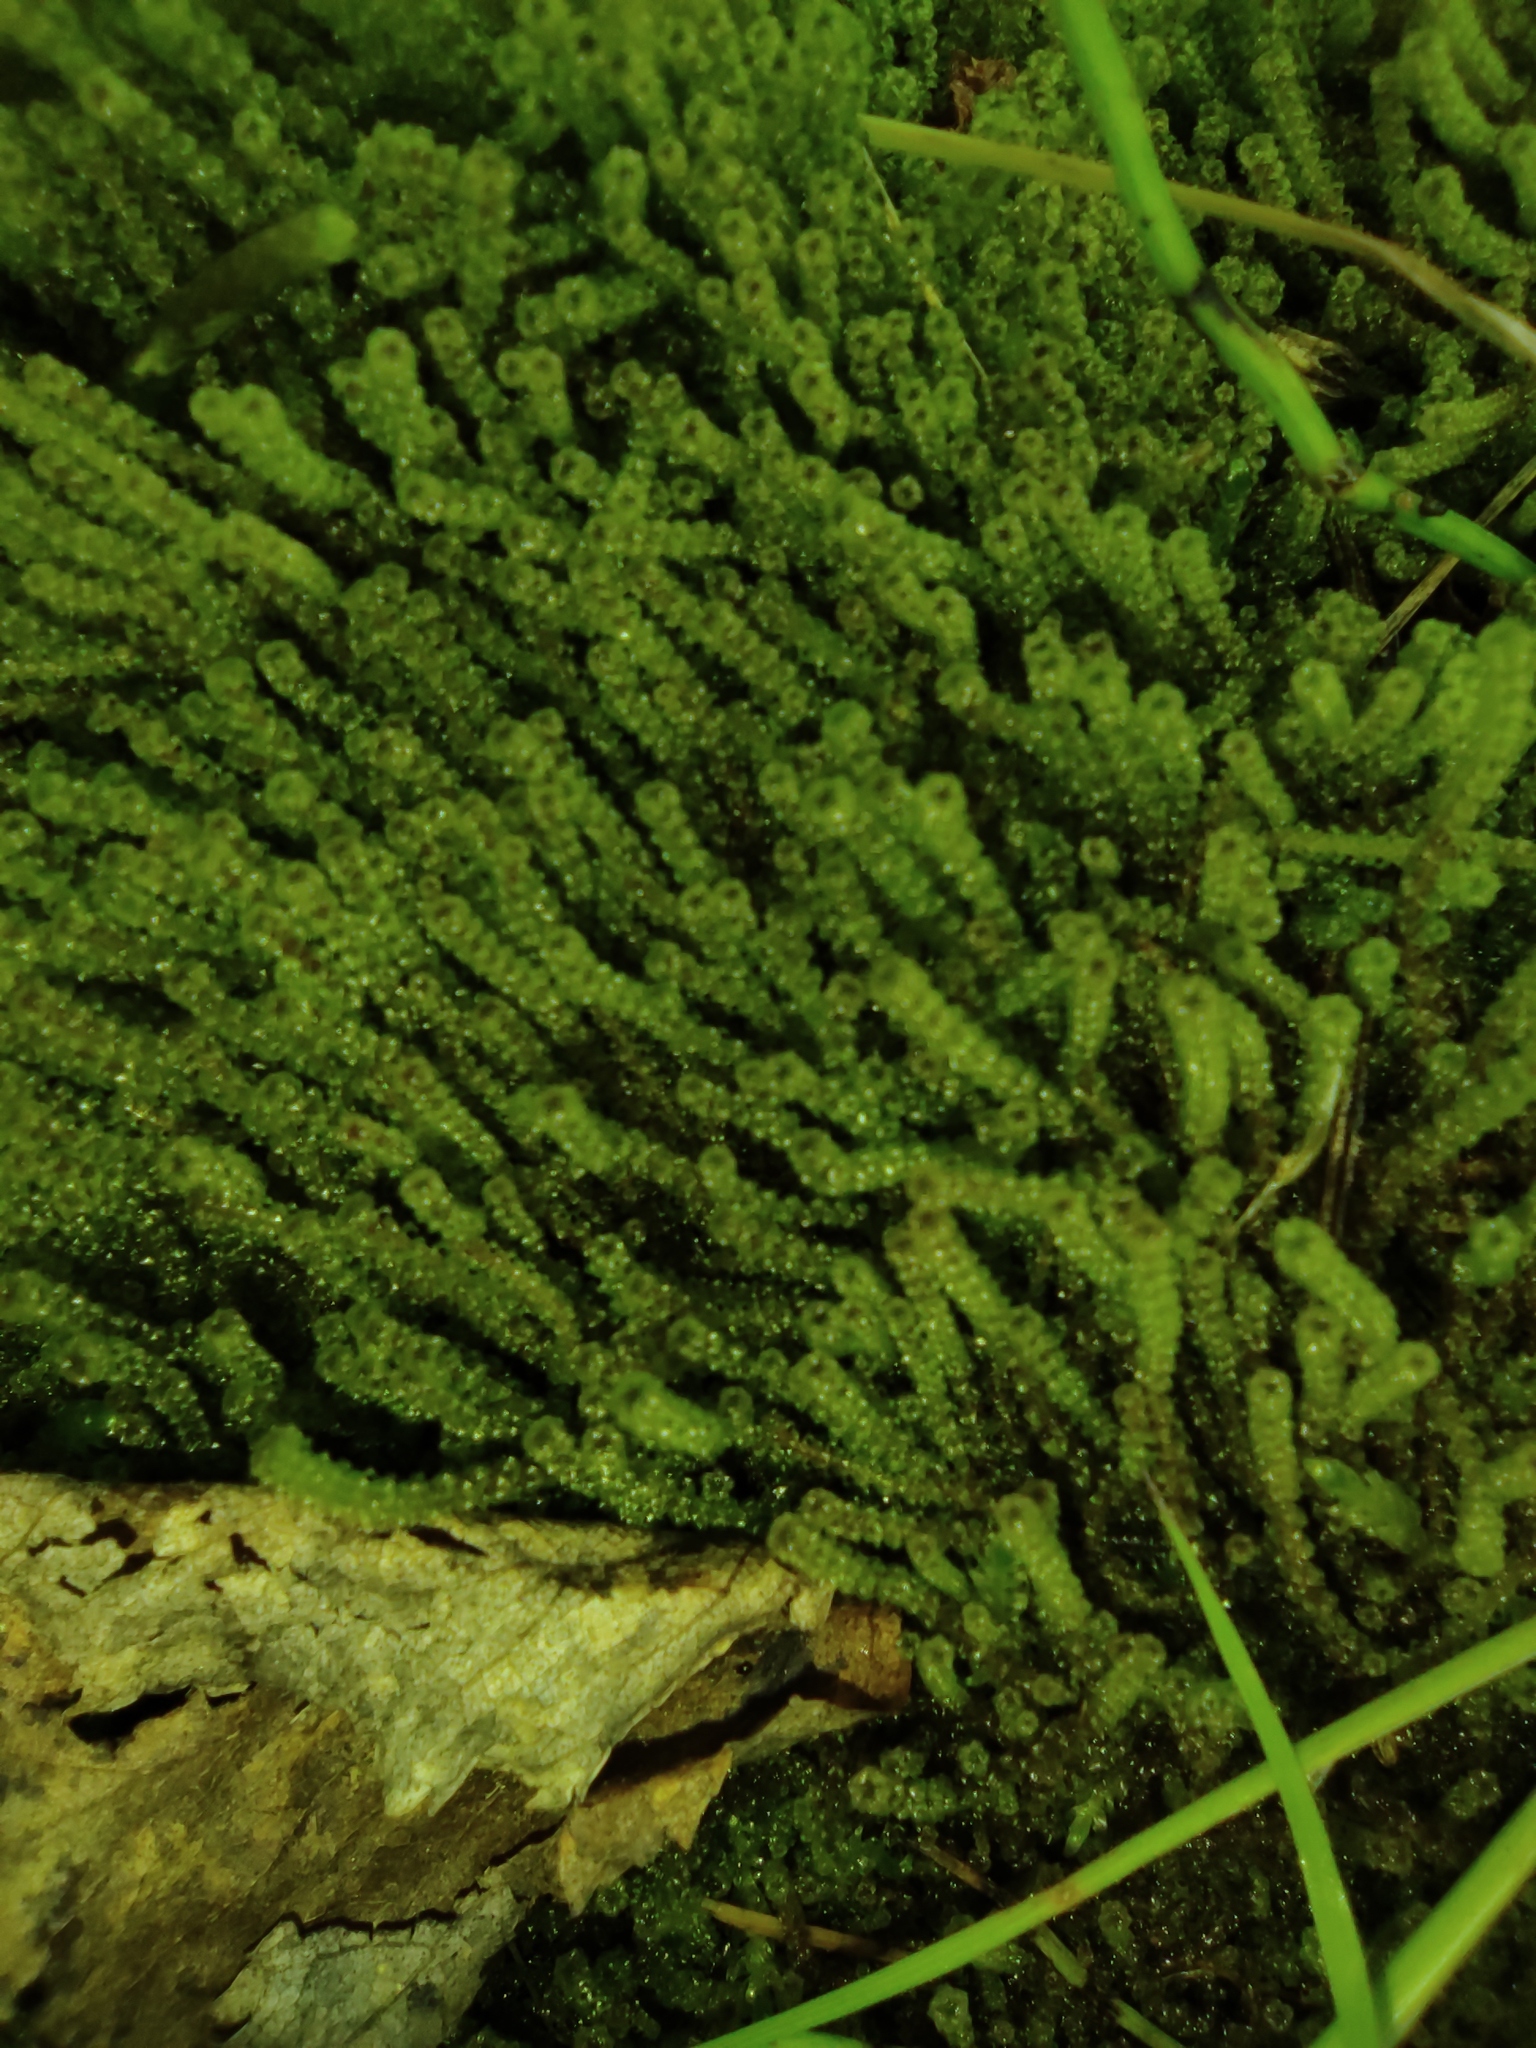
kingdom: Plantae
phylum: Bryophyta
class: Bryopsida
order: Splachnales
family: Meesiaceae
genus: Paludella
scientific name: Paludella squarrosa
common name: Tufted fen moss
